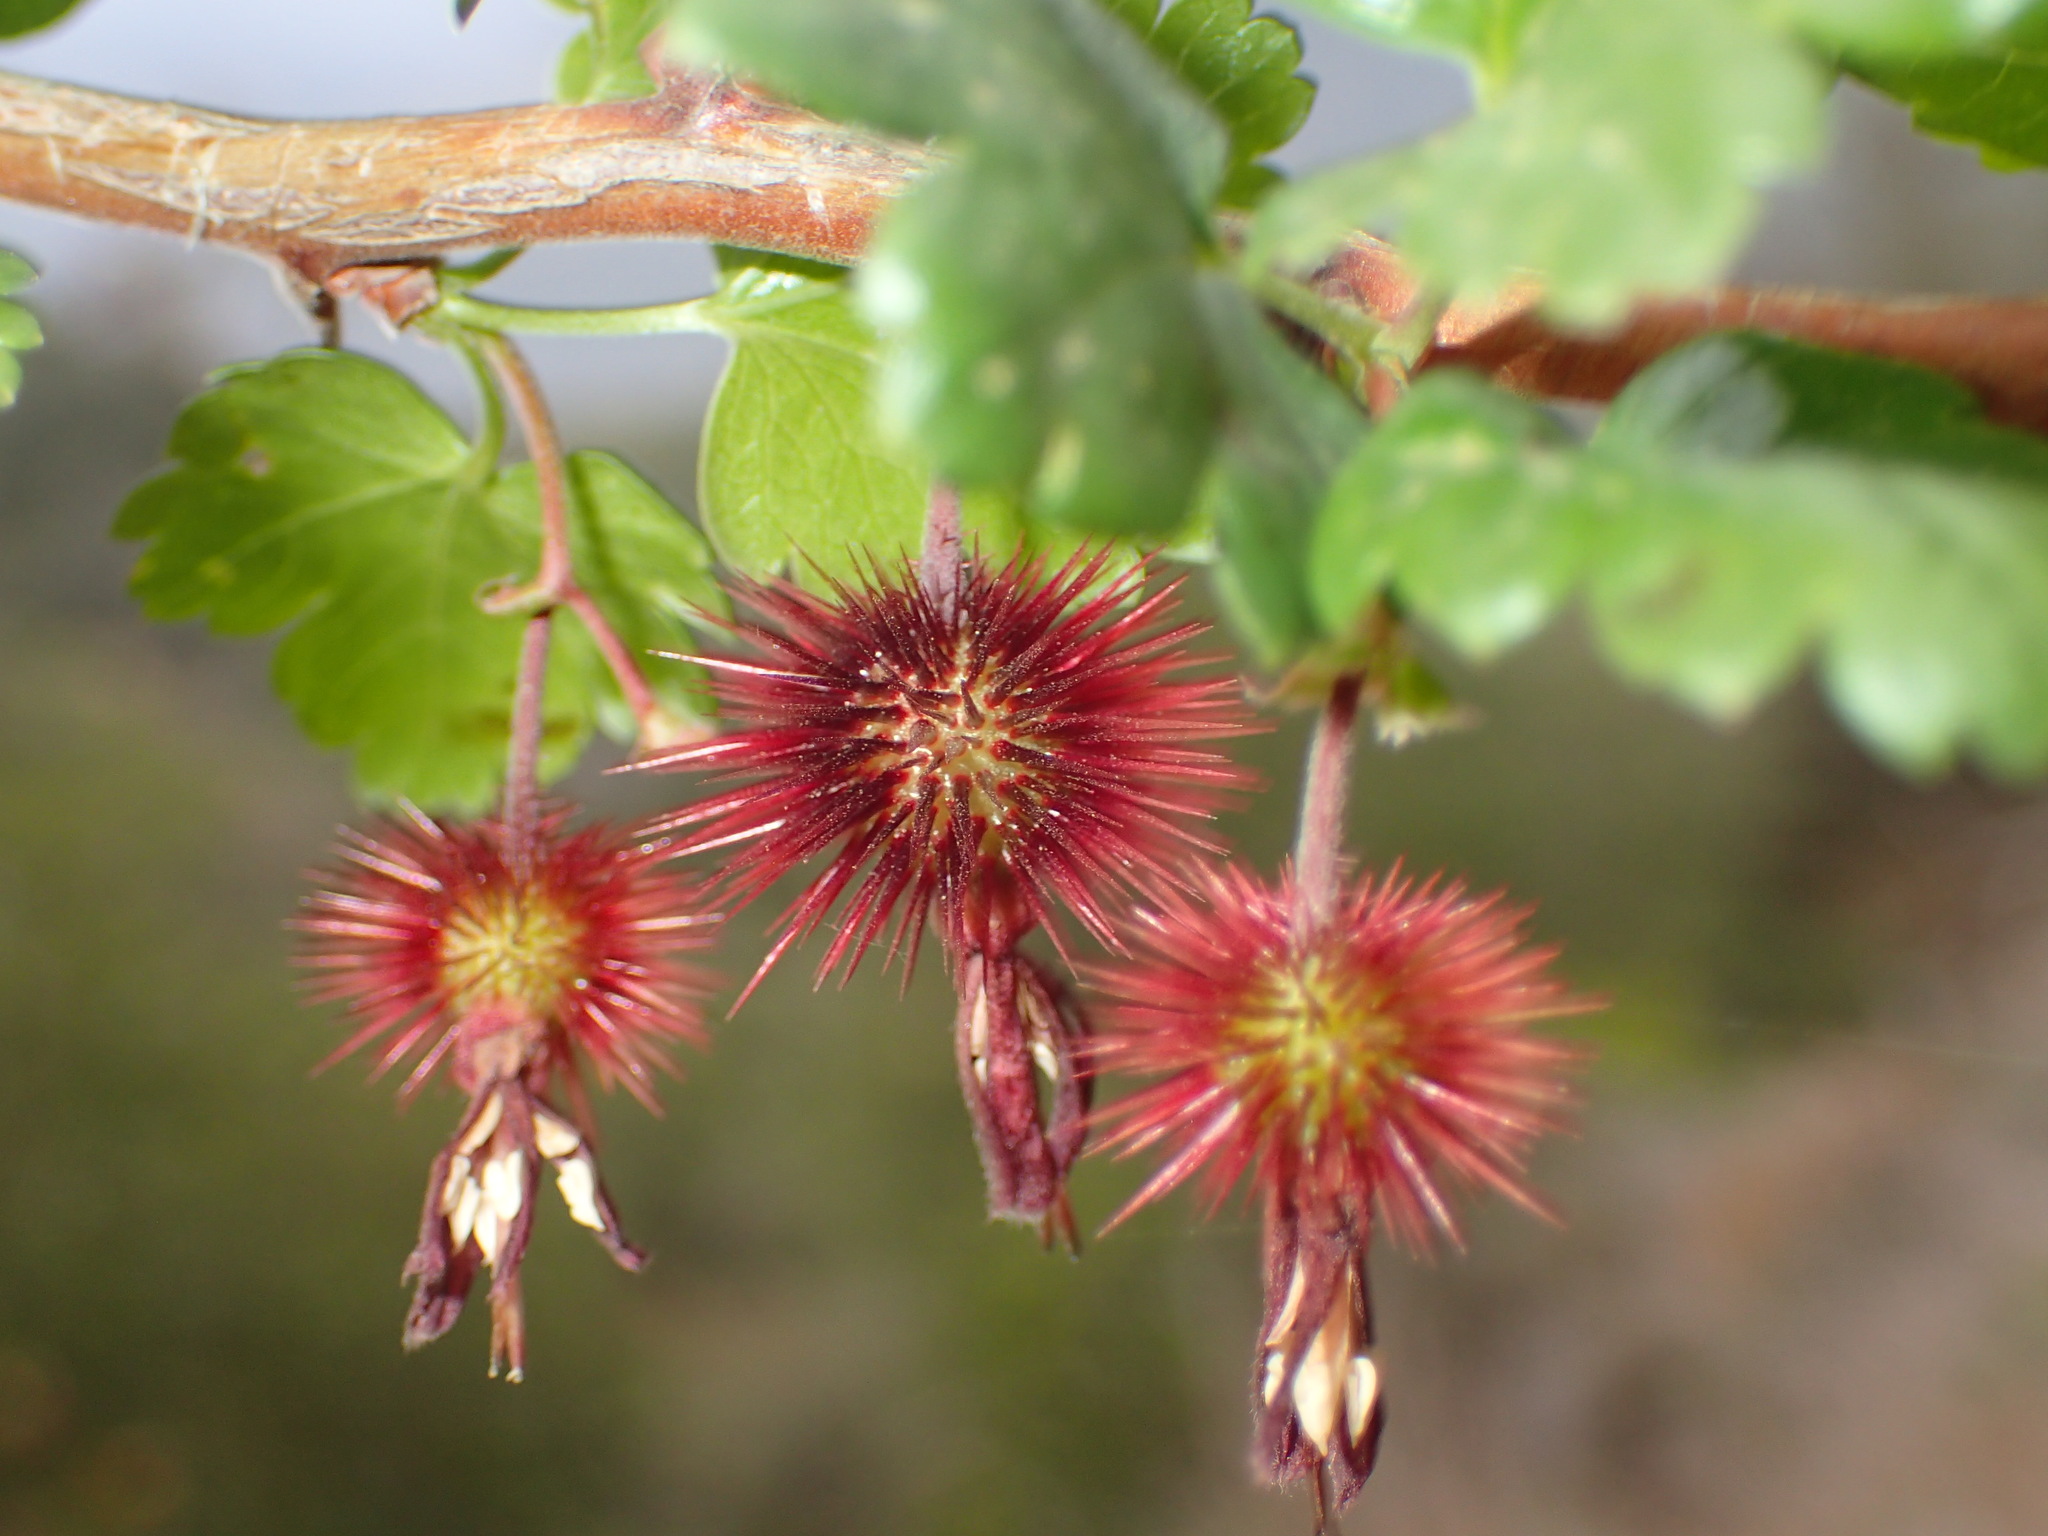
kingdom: Plantae
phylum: Tracheophyta
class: Magnoliopsida
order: Saxifragales
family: Grossulariaceae
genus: Ribes
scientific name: Ribes californicum
